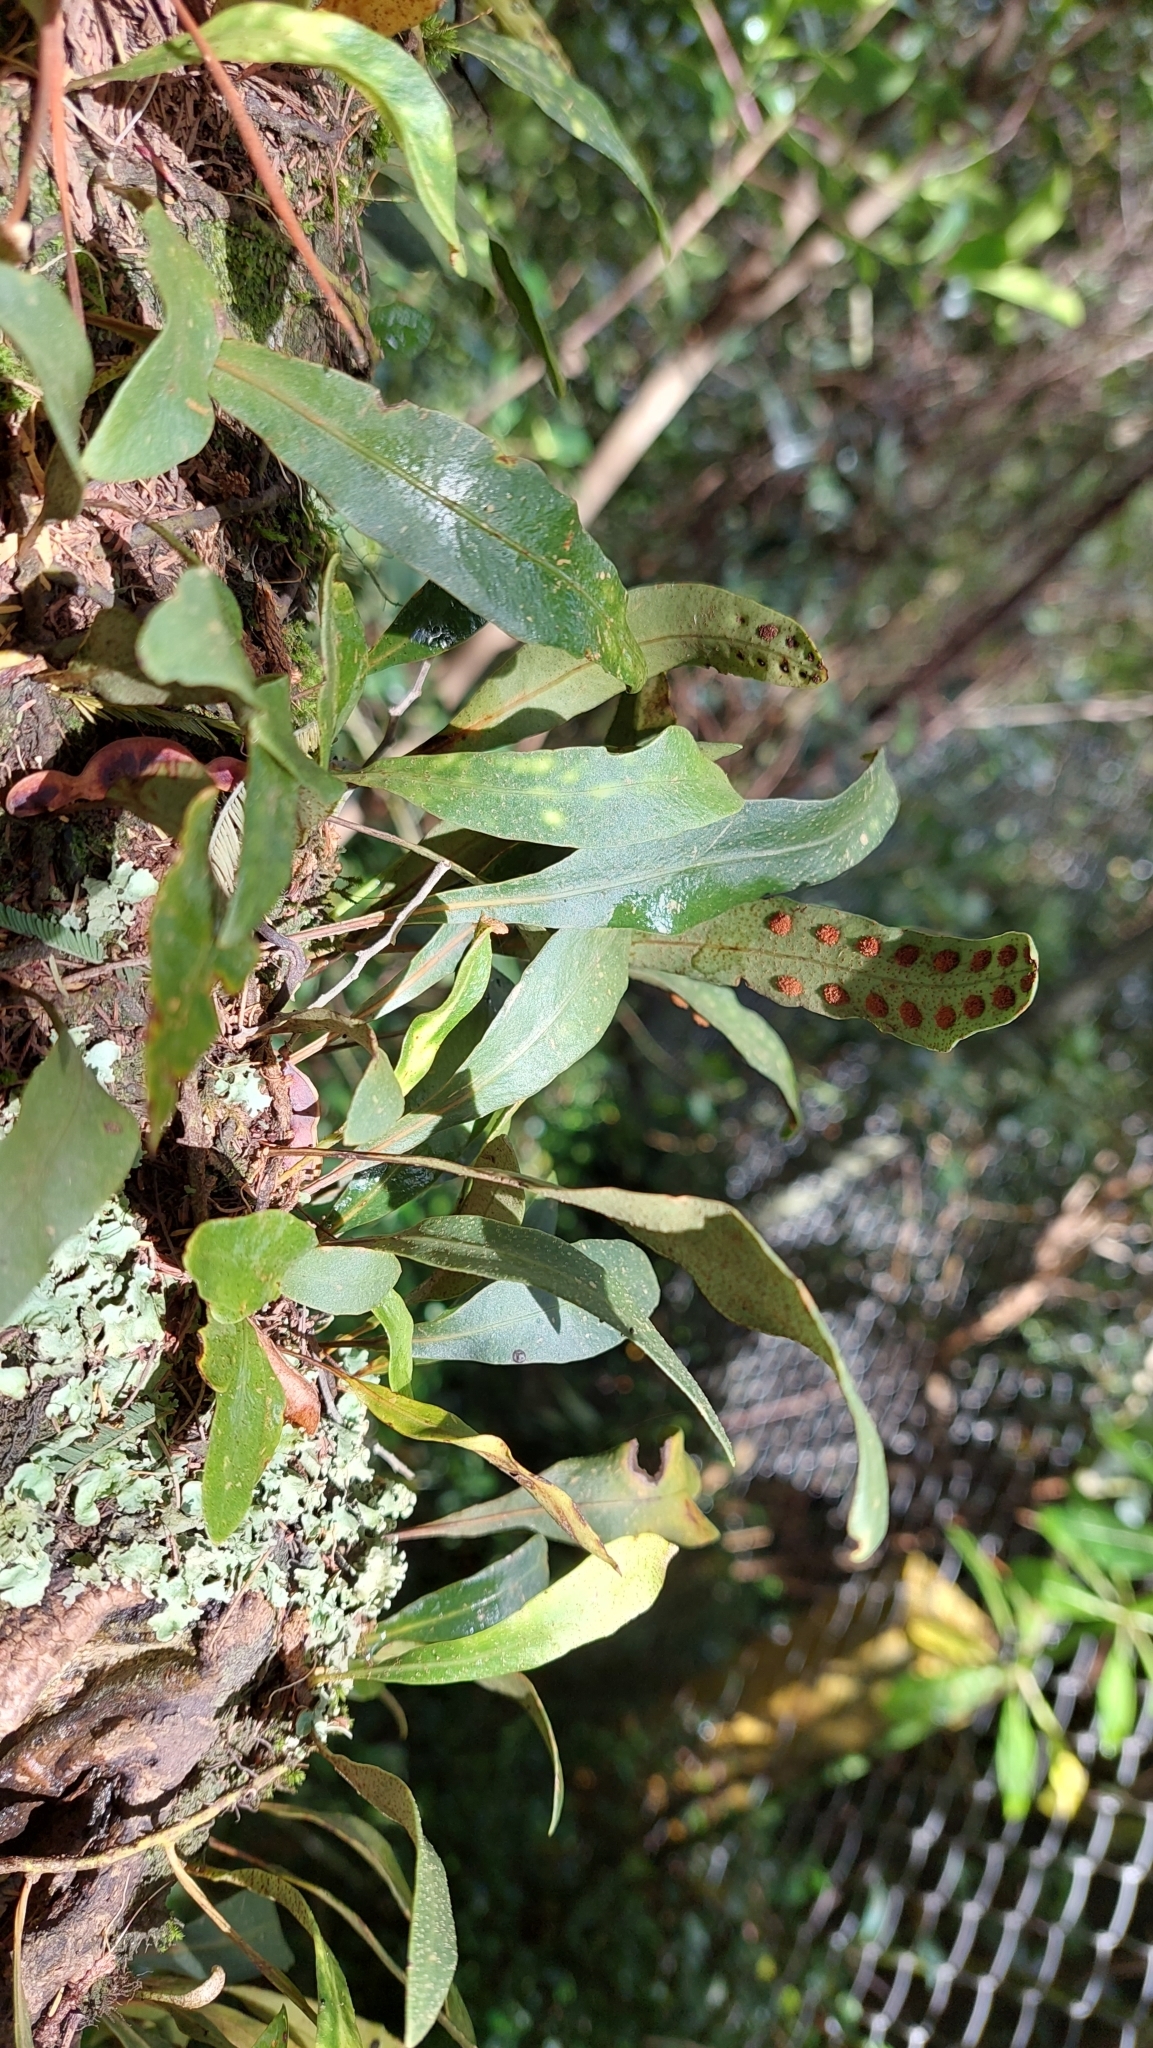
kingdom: Plantae
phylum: Tracheophyta
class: Polypodiopsida
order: Polypodiales
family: Polypodiaceae
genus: Pleopeltis
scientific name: Pleopeltis macrocarpa
